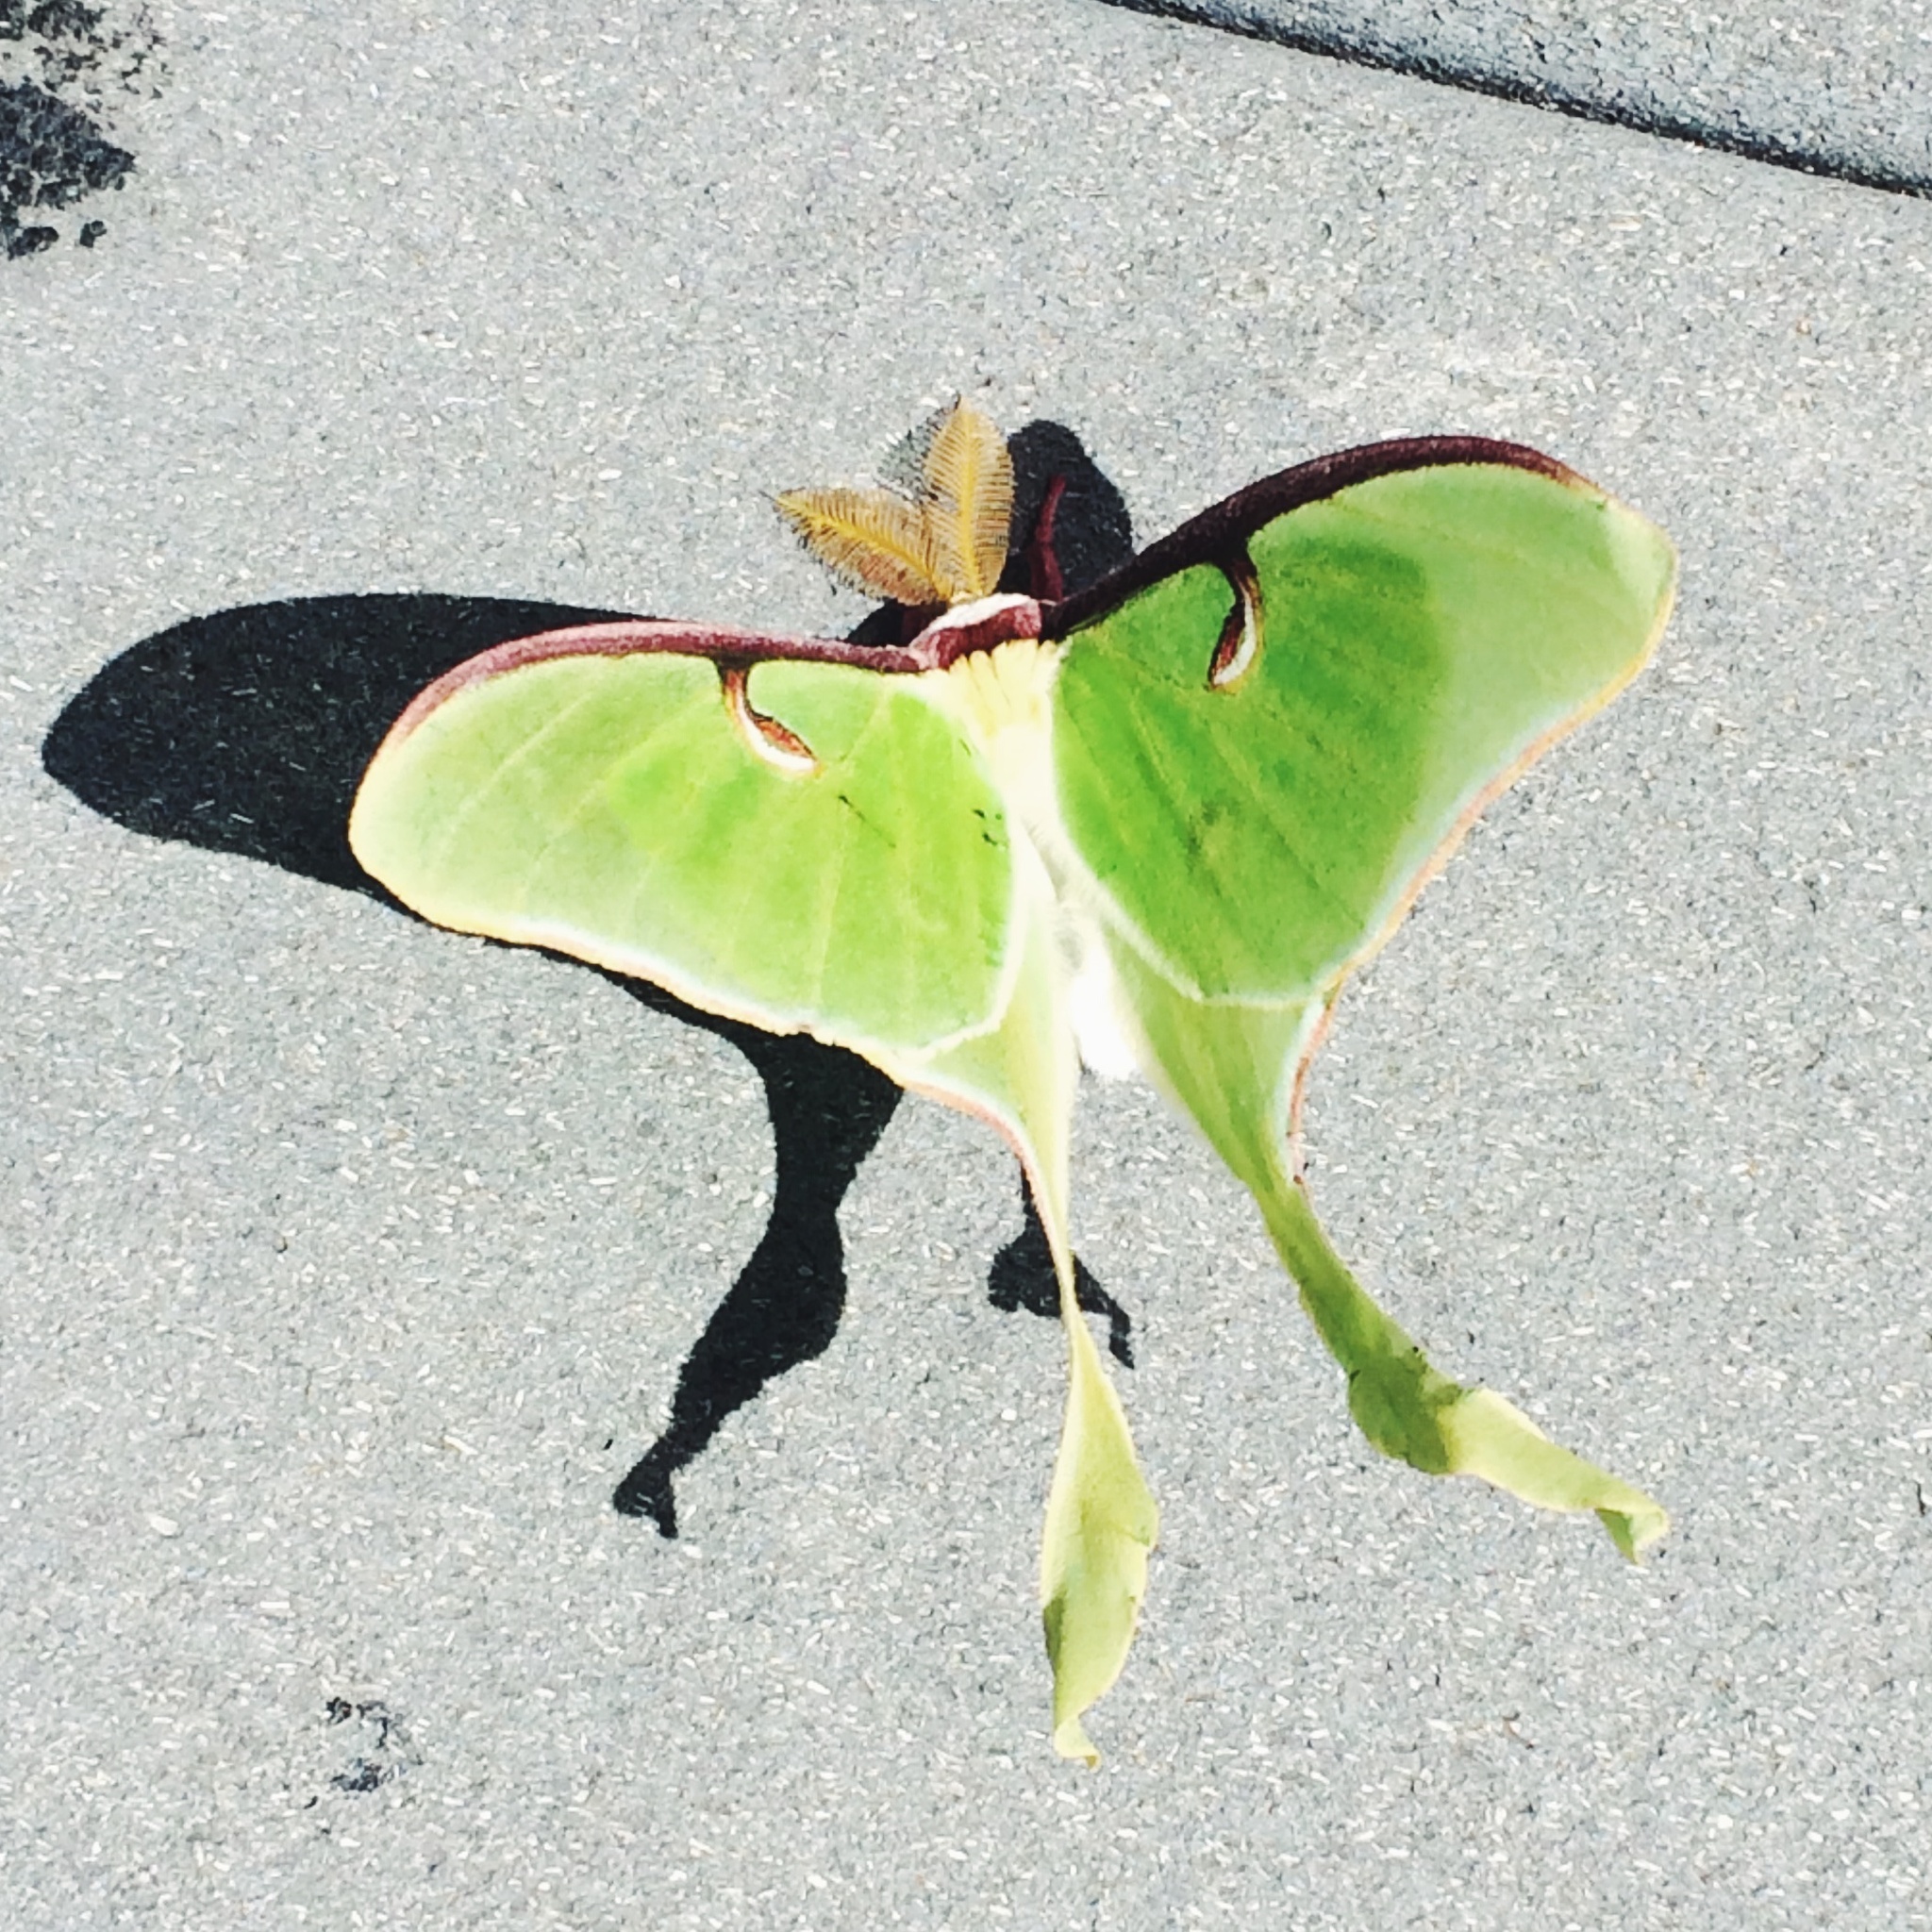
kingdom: Animalia
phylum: Arthropoda
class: Insecta
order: Lepidoptera
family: Saturniidae
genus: Actias
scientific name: Actias luna
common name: Luna moth
